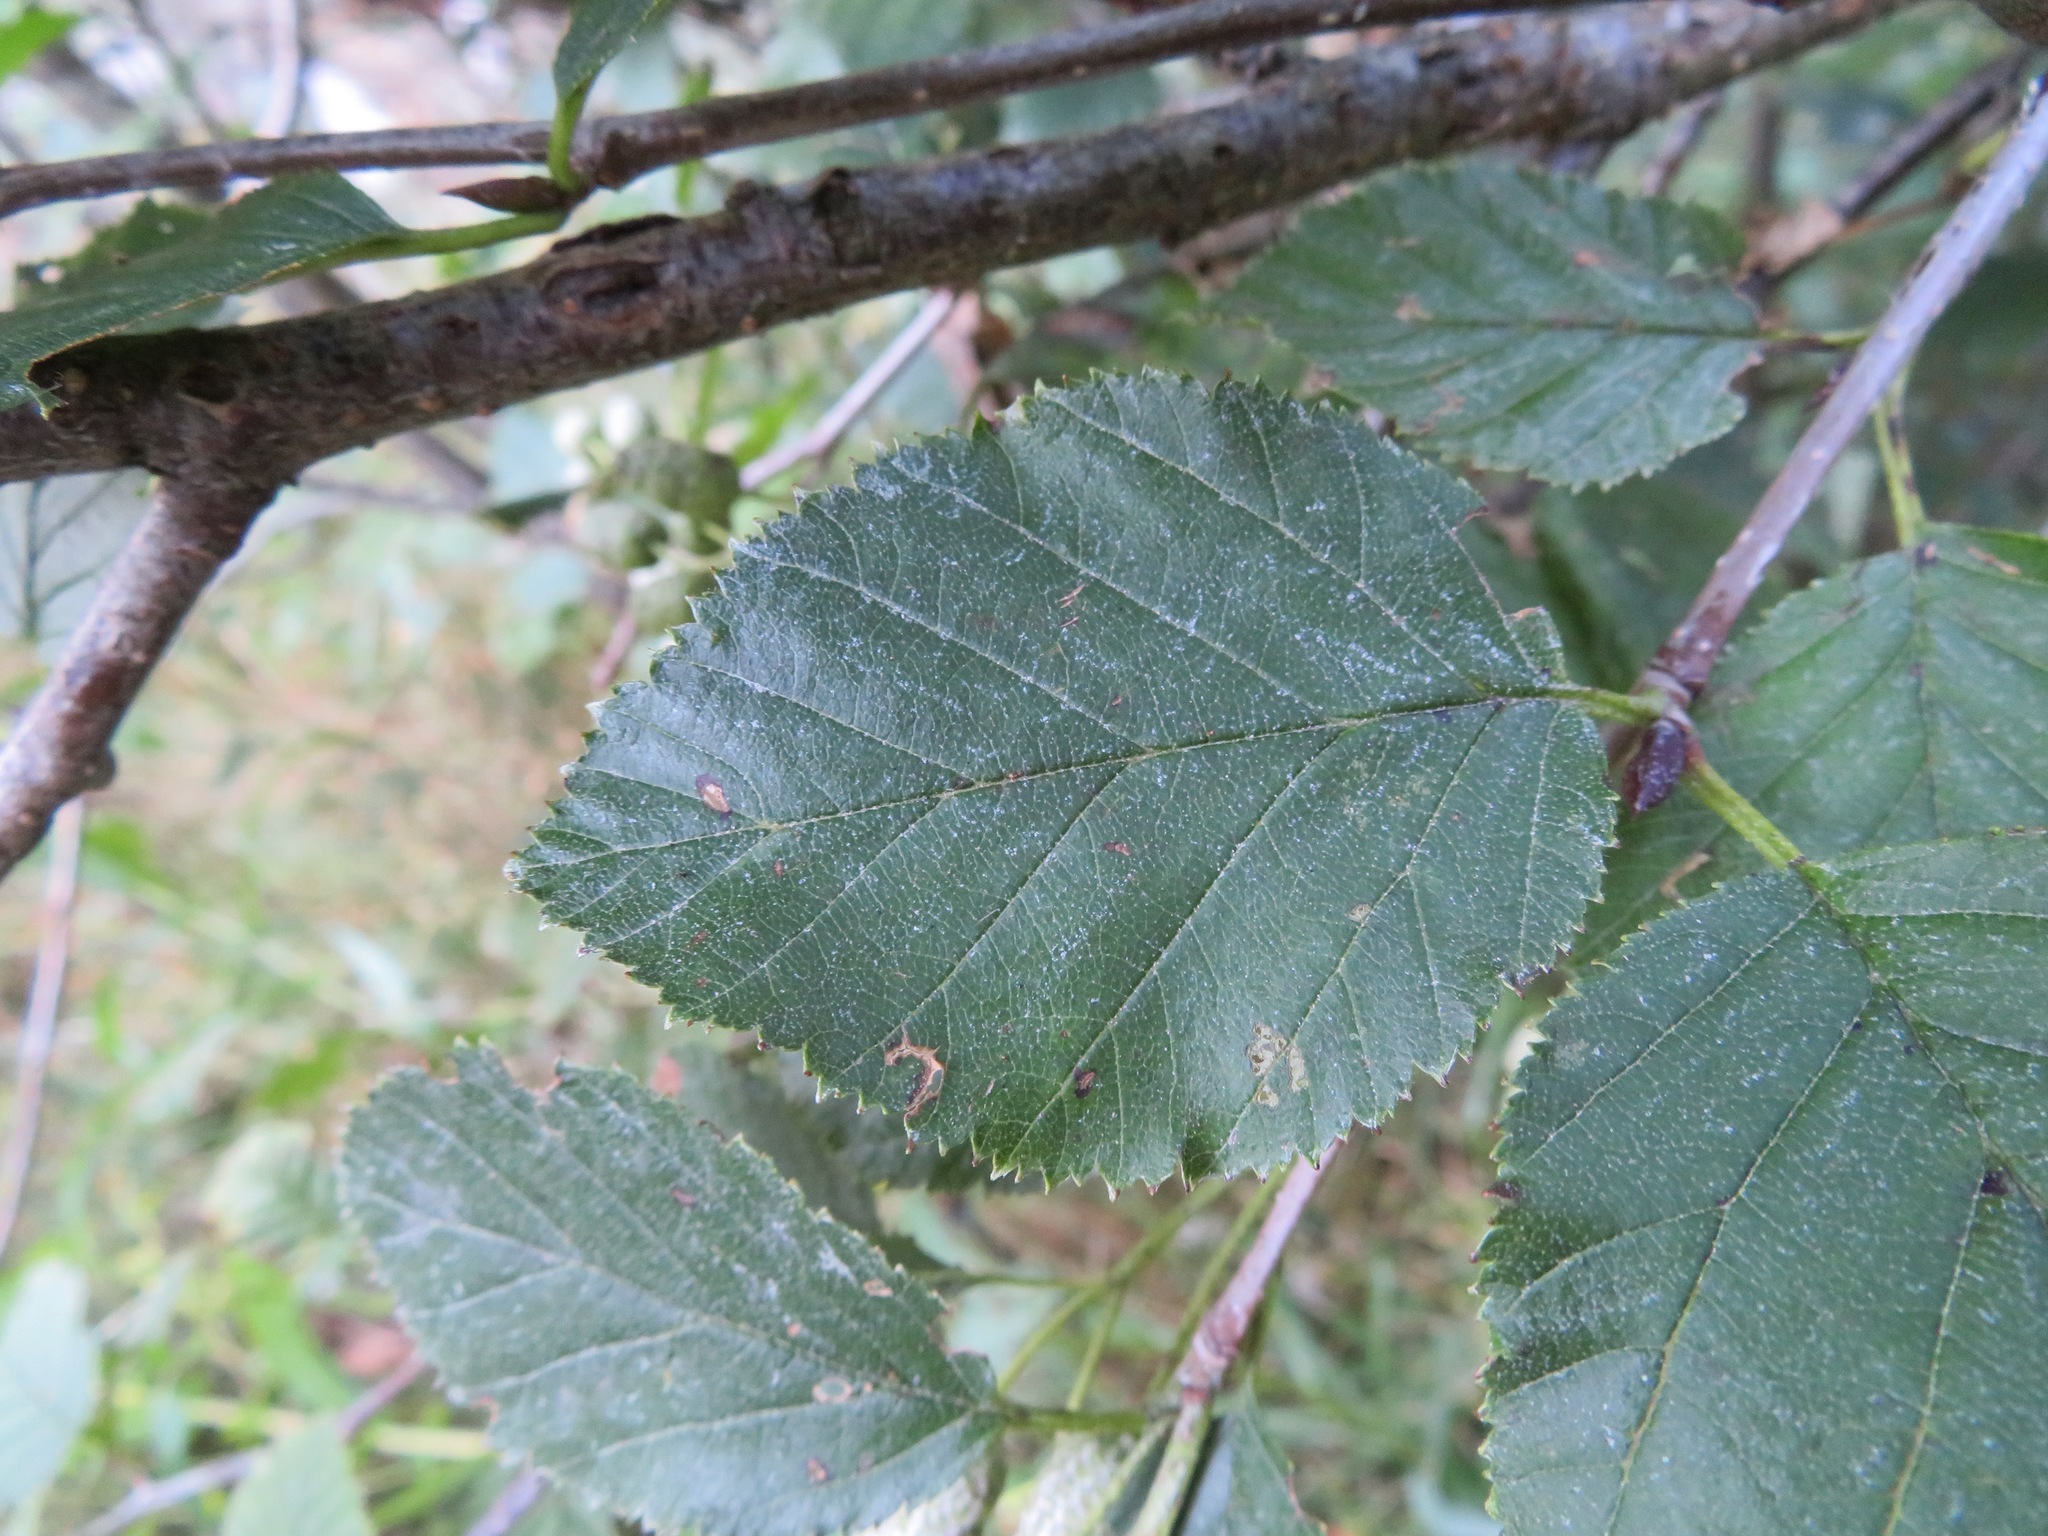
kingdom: Plantae
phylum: Tracheophyta
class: Magnoliopsida
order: Fagales
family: Betulaceae
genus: Alnus
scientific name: Alnus alnobetula
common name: Green alder
